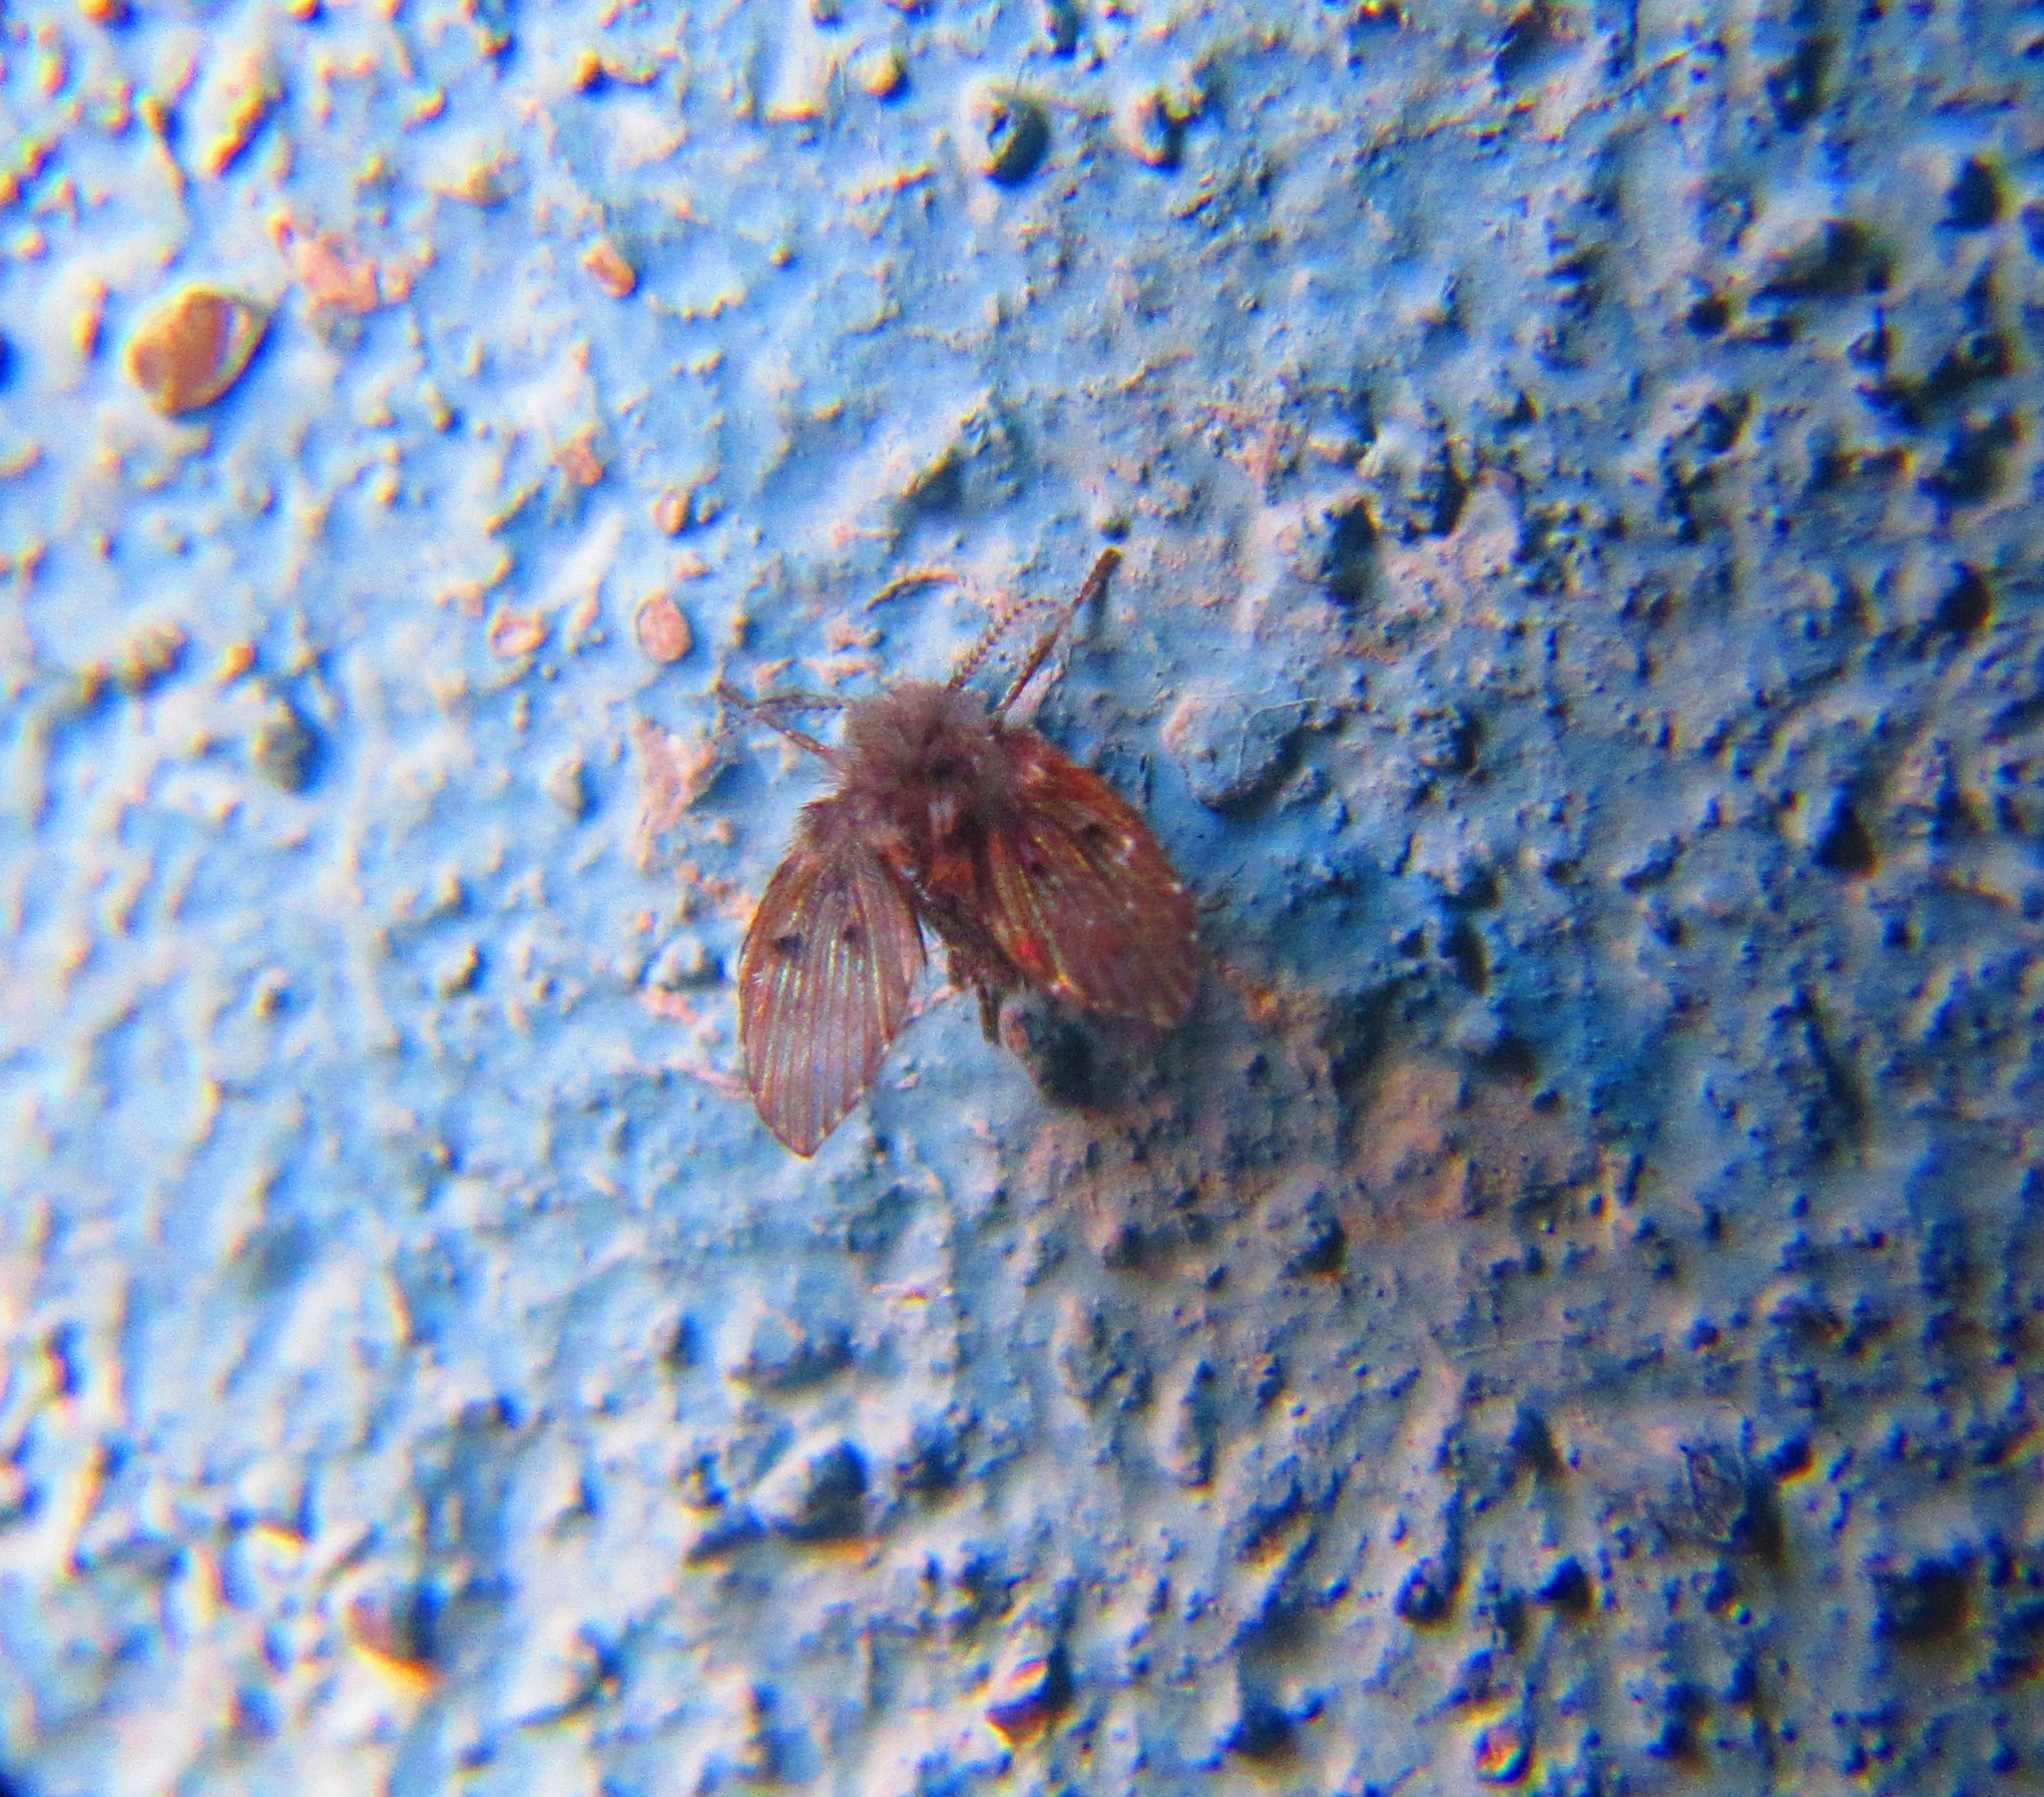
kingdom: Animalia
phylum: Arthropoda
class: Insecta
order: Diptera
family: Psychodidae
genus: Clogmia
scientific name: Clogmia albipunctatus
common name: White-spotted moth fly
